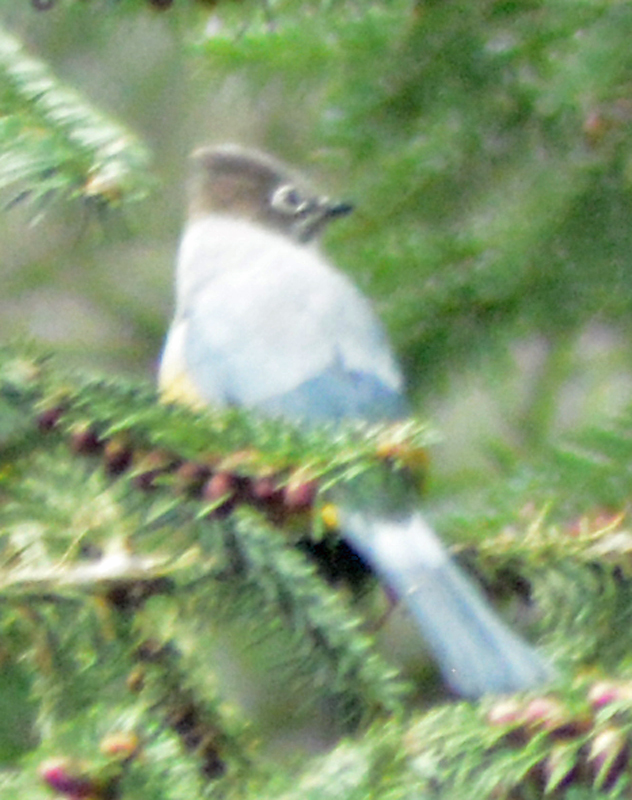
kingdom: Animalia
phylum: Chordata
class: Aves
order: Passeriformes
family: Ptilogonatidae
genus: Ptilogonys
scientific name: Ptilogonys cinereus
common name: Gray silky-flycatcher
